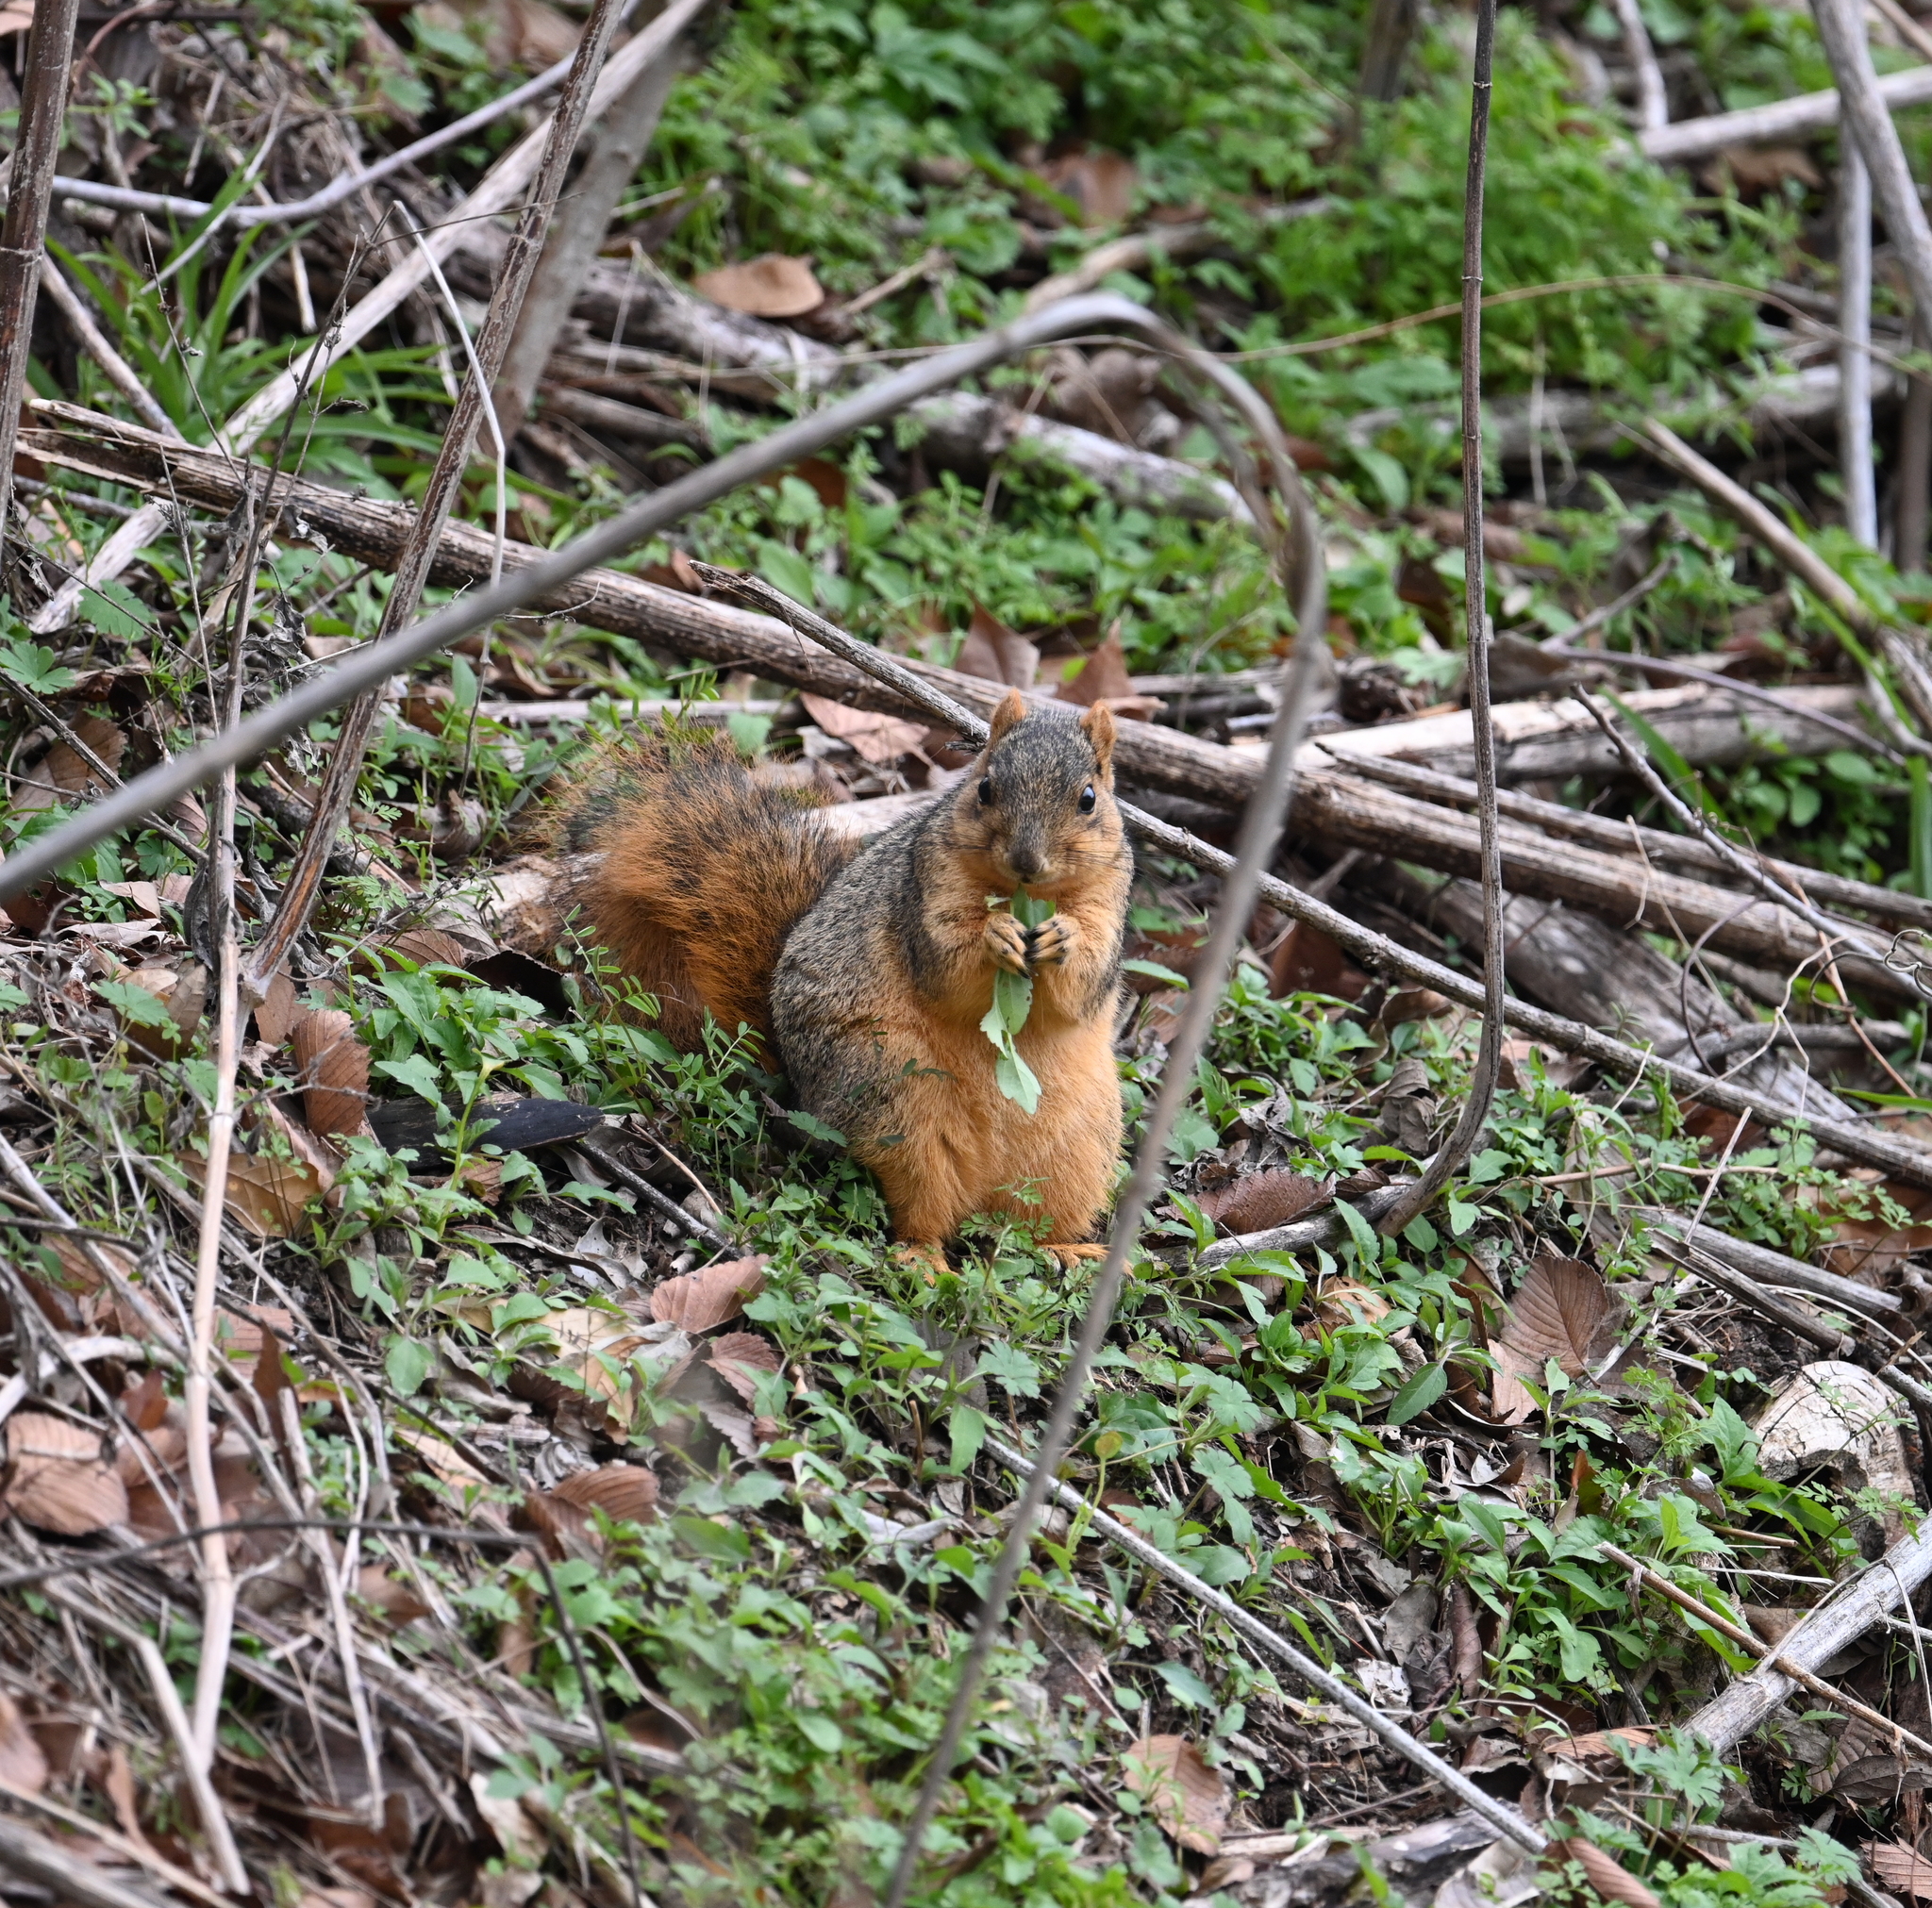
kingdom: Animalia
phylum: Chordata
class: Mammalia
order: Rodentia
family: Sciuridae
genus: Sciurus
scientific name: Sciurus niger
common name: Fox squirrel
